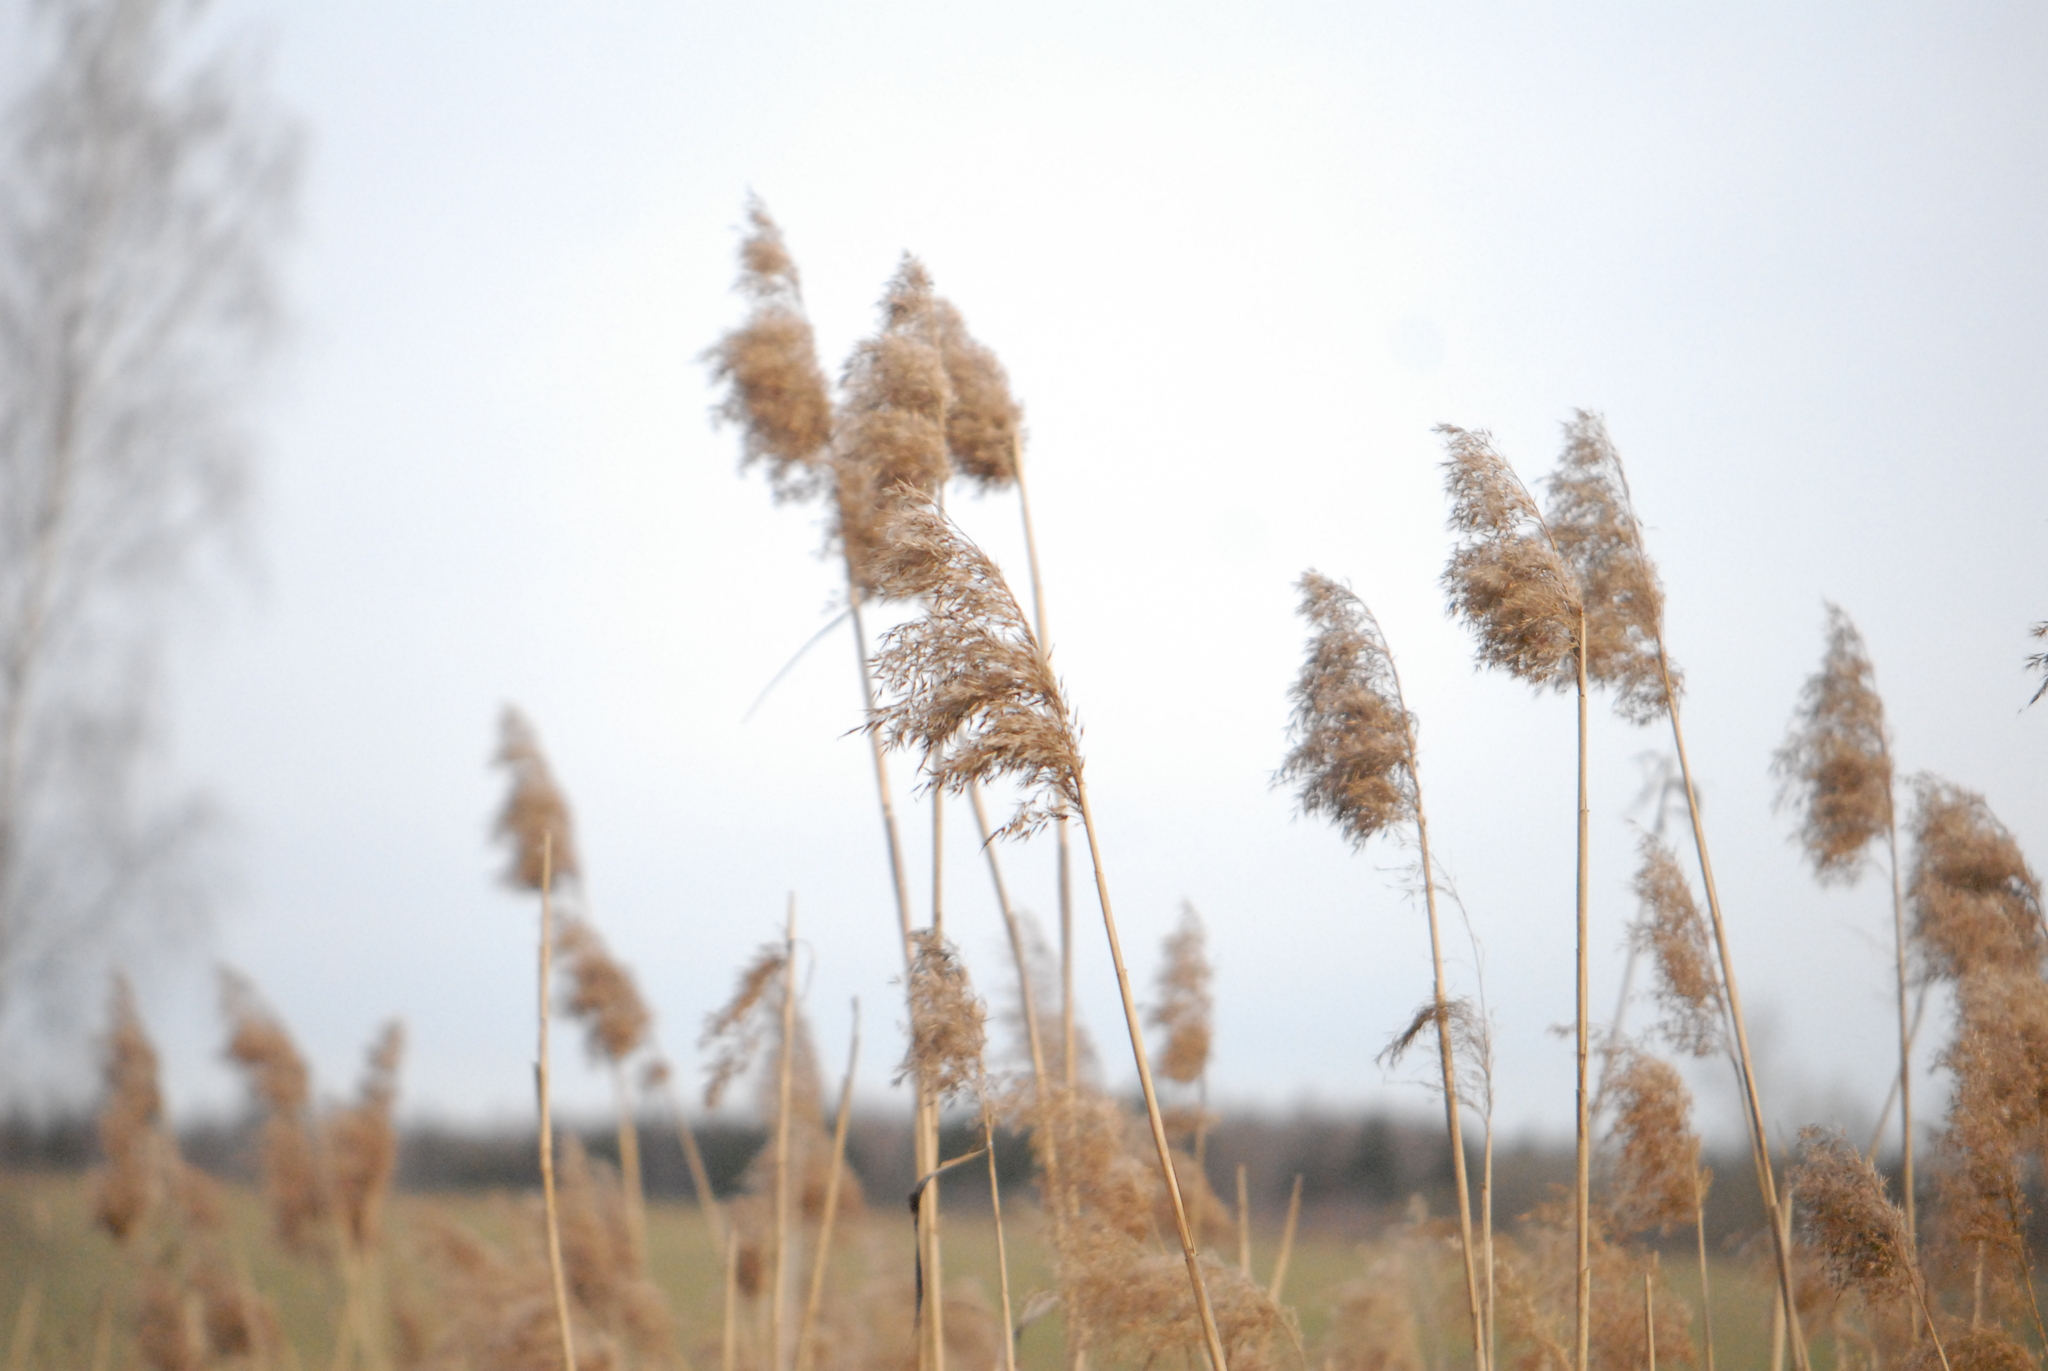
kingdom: Plantae
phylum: Tracheophyta
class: Liliopsida
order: Poales
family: Poaceae
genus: Phragmites
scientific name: Phragmites australis
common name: Common reed
